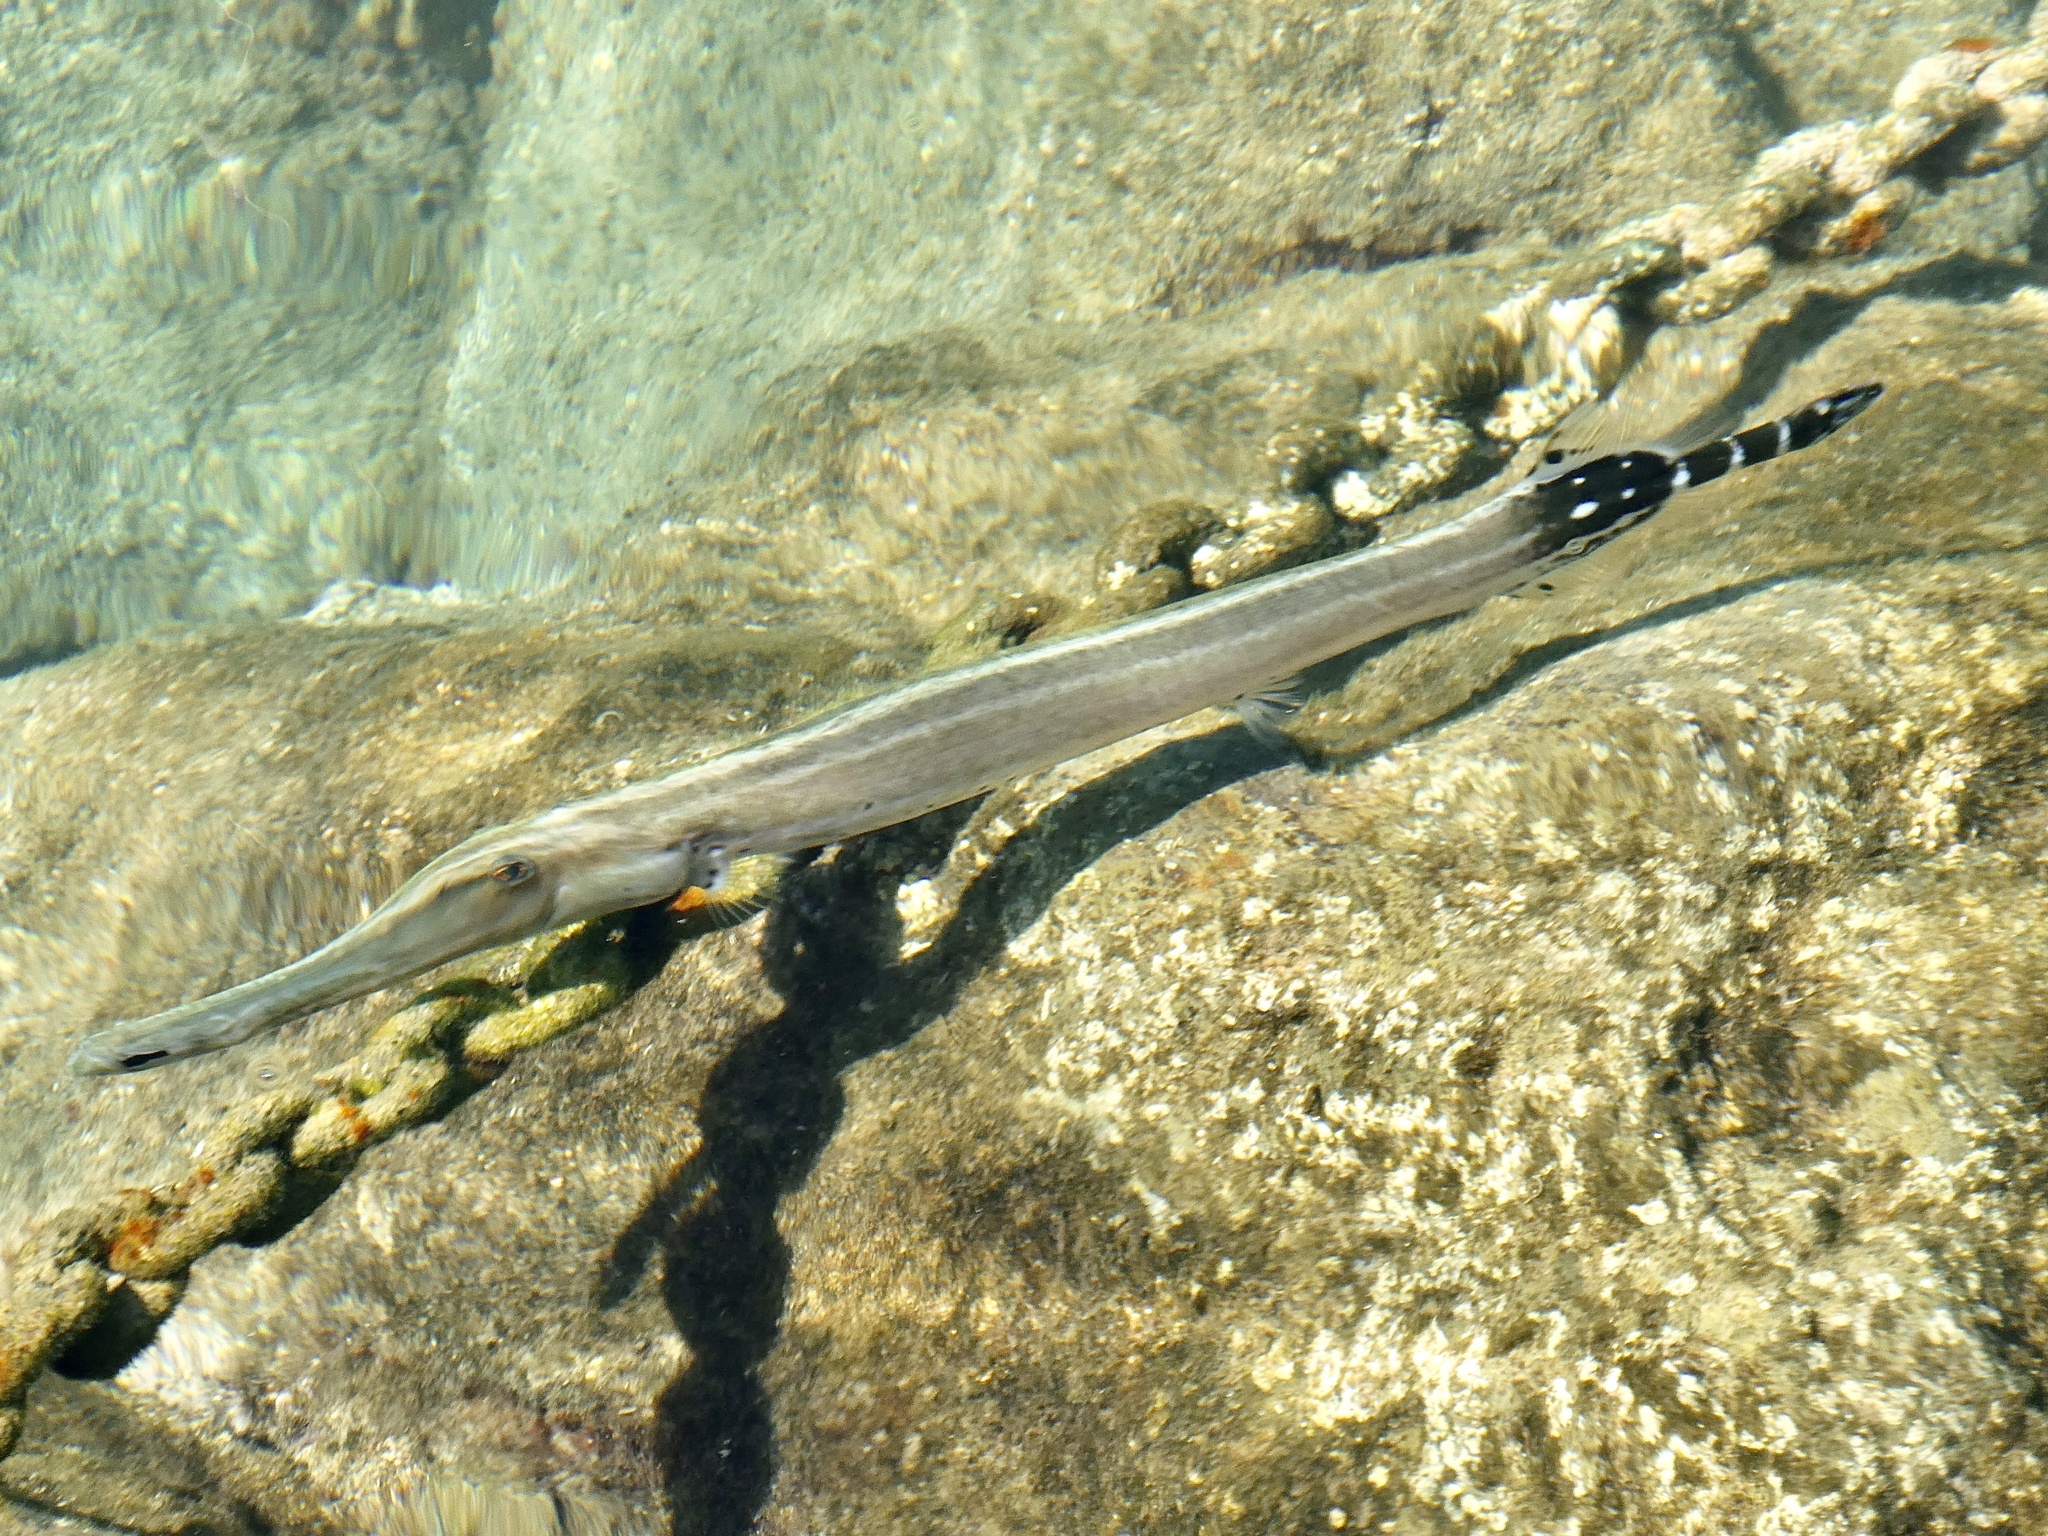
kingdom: Animalia
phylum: Chordata
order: Syngnathiformes
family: Aulostomidae
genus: Aulostomus
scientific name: Aulostomus strigosus
